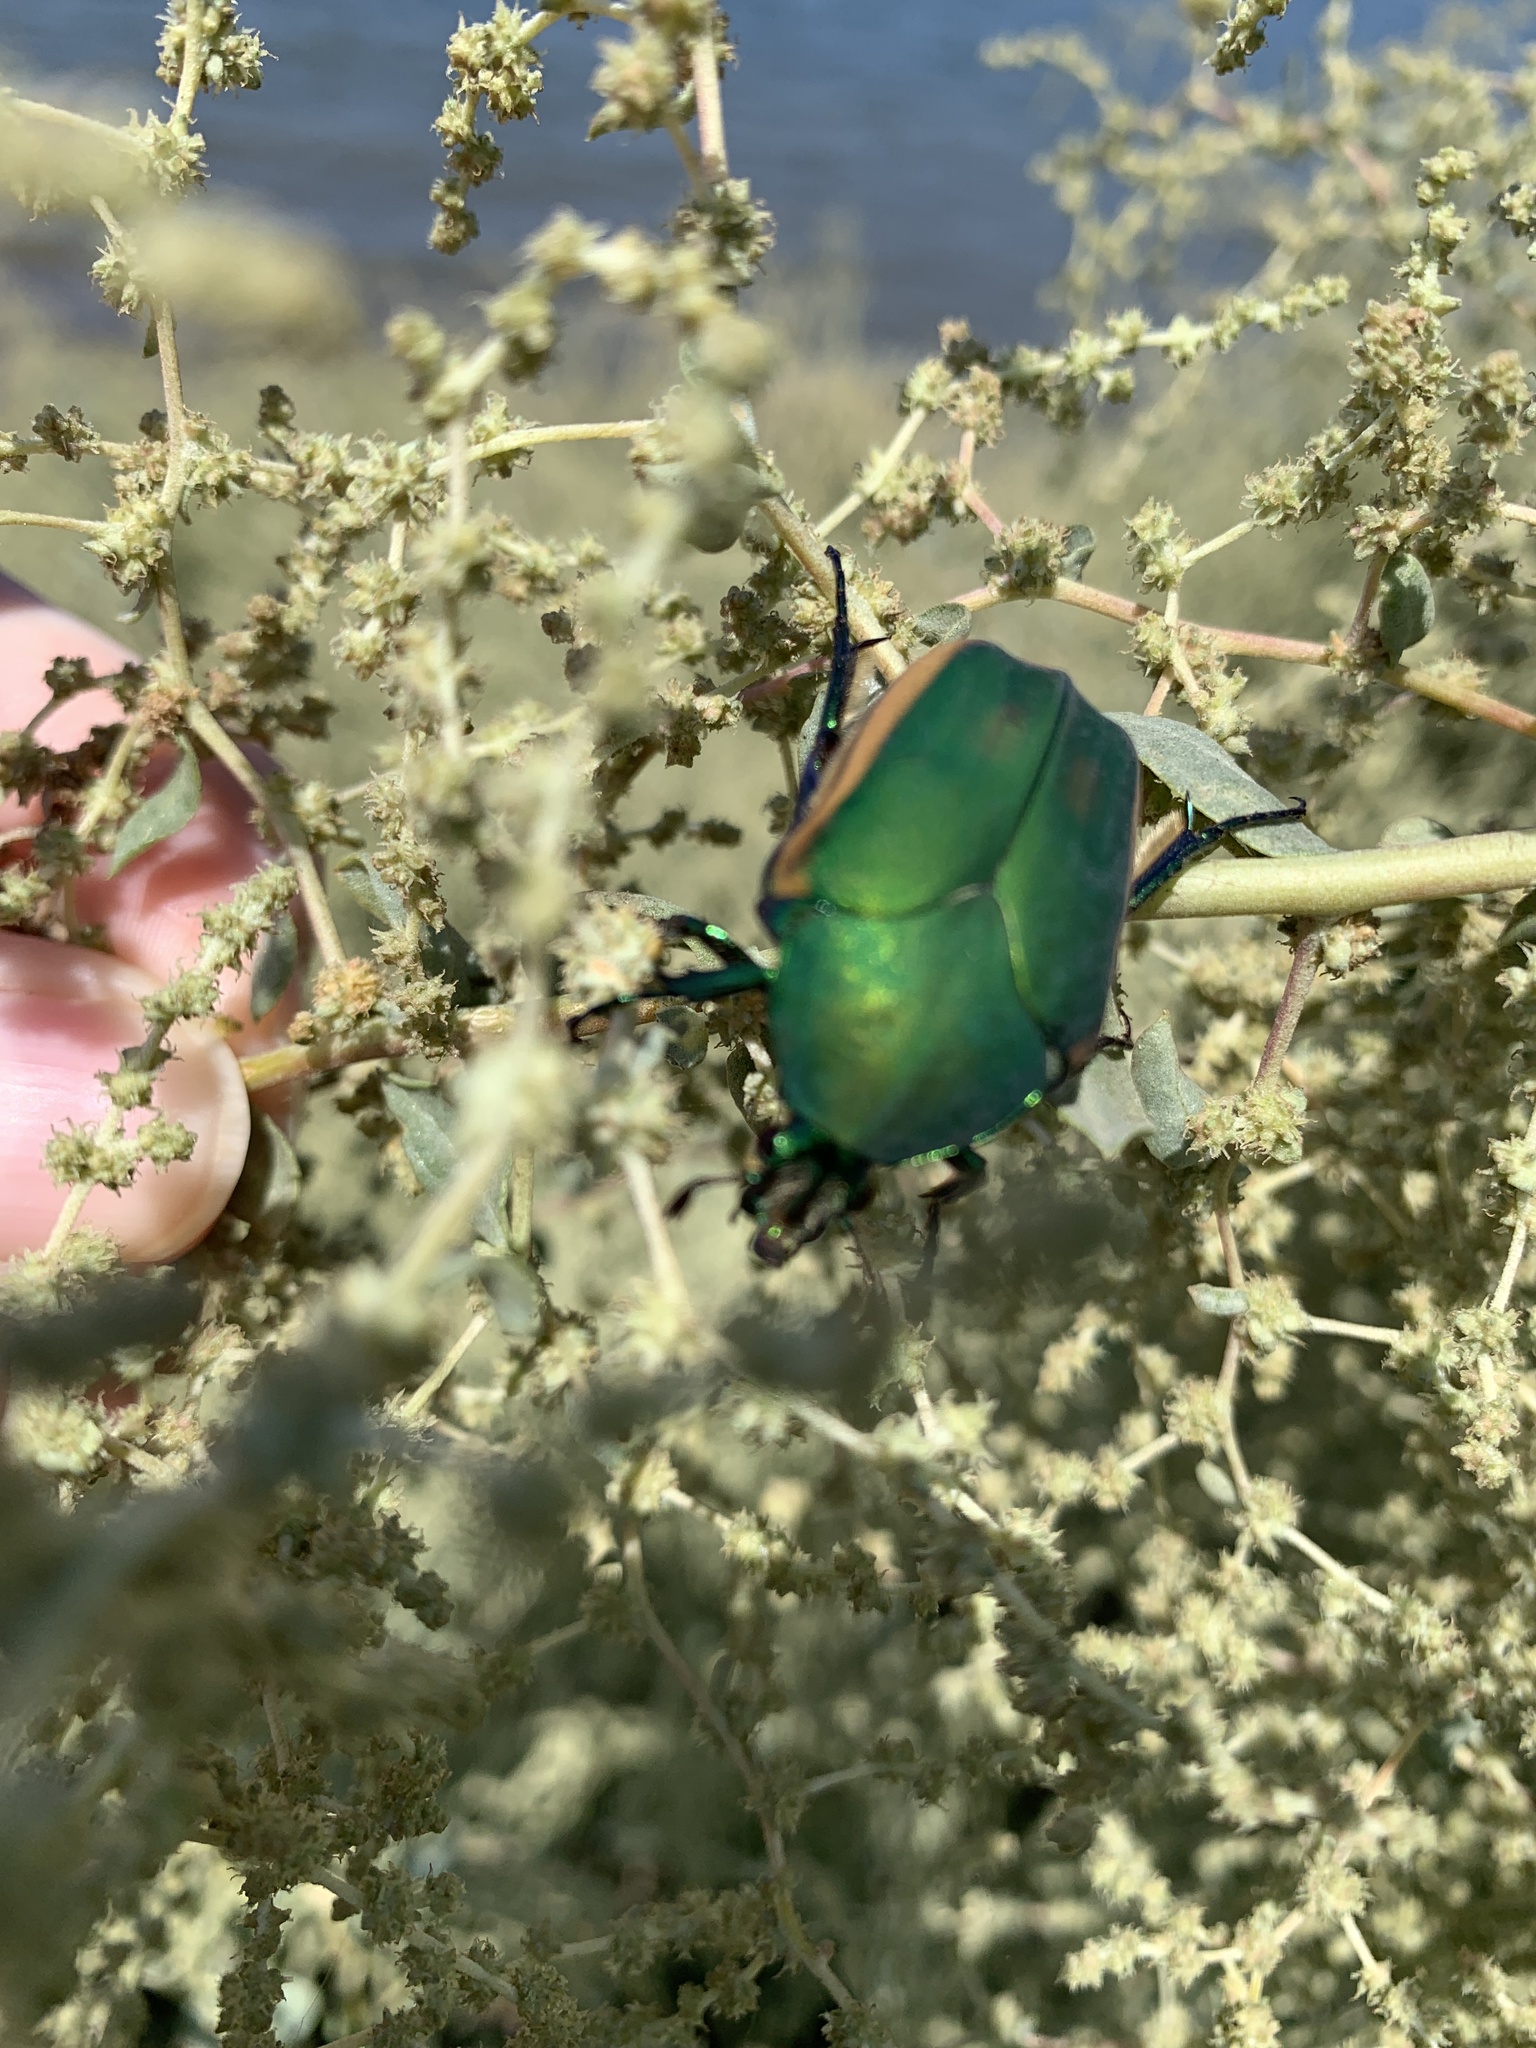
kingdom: Animalia
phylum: Arthropoda
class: Insecta
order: Coleoptera
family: Scarabaeidae
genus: Cotinis
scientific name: Cotinis mutabilis
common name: Figeater beetle
